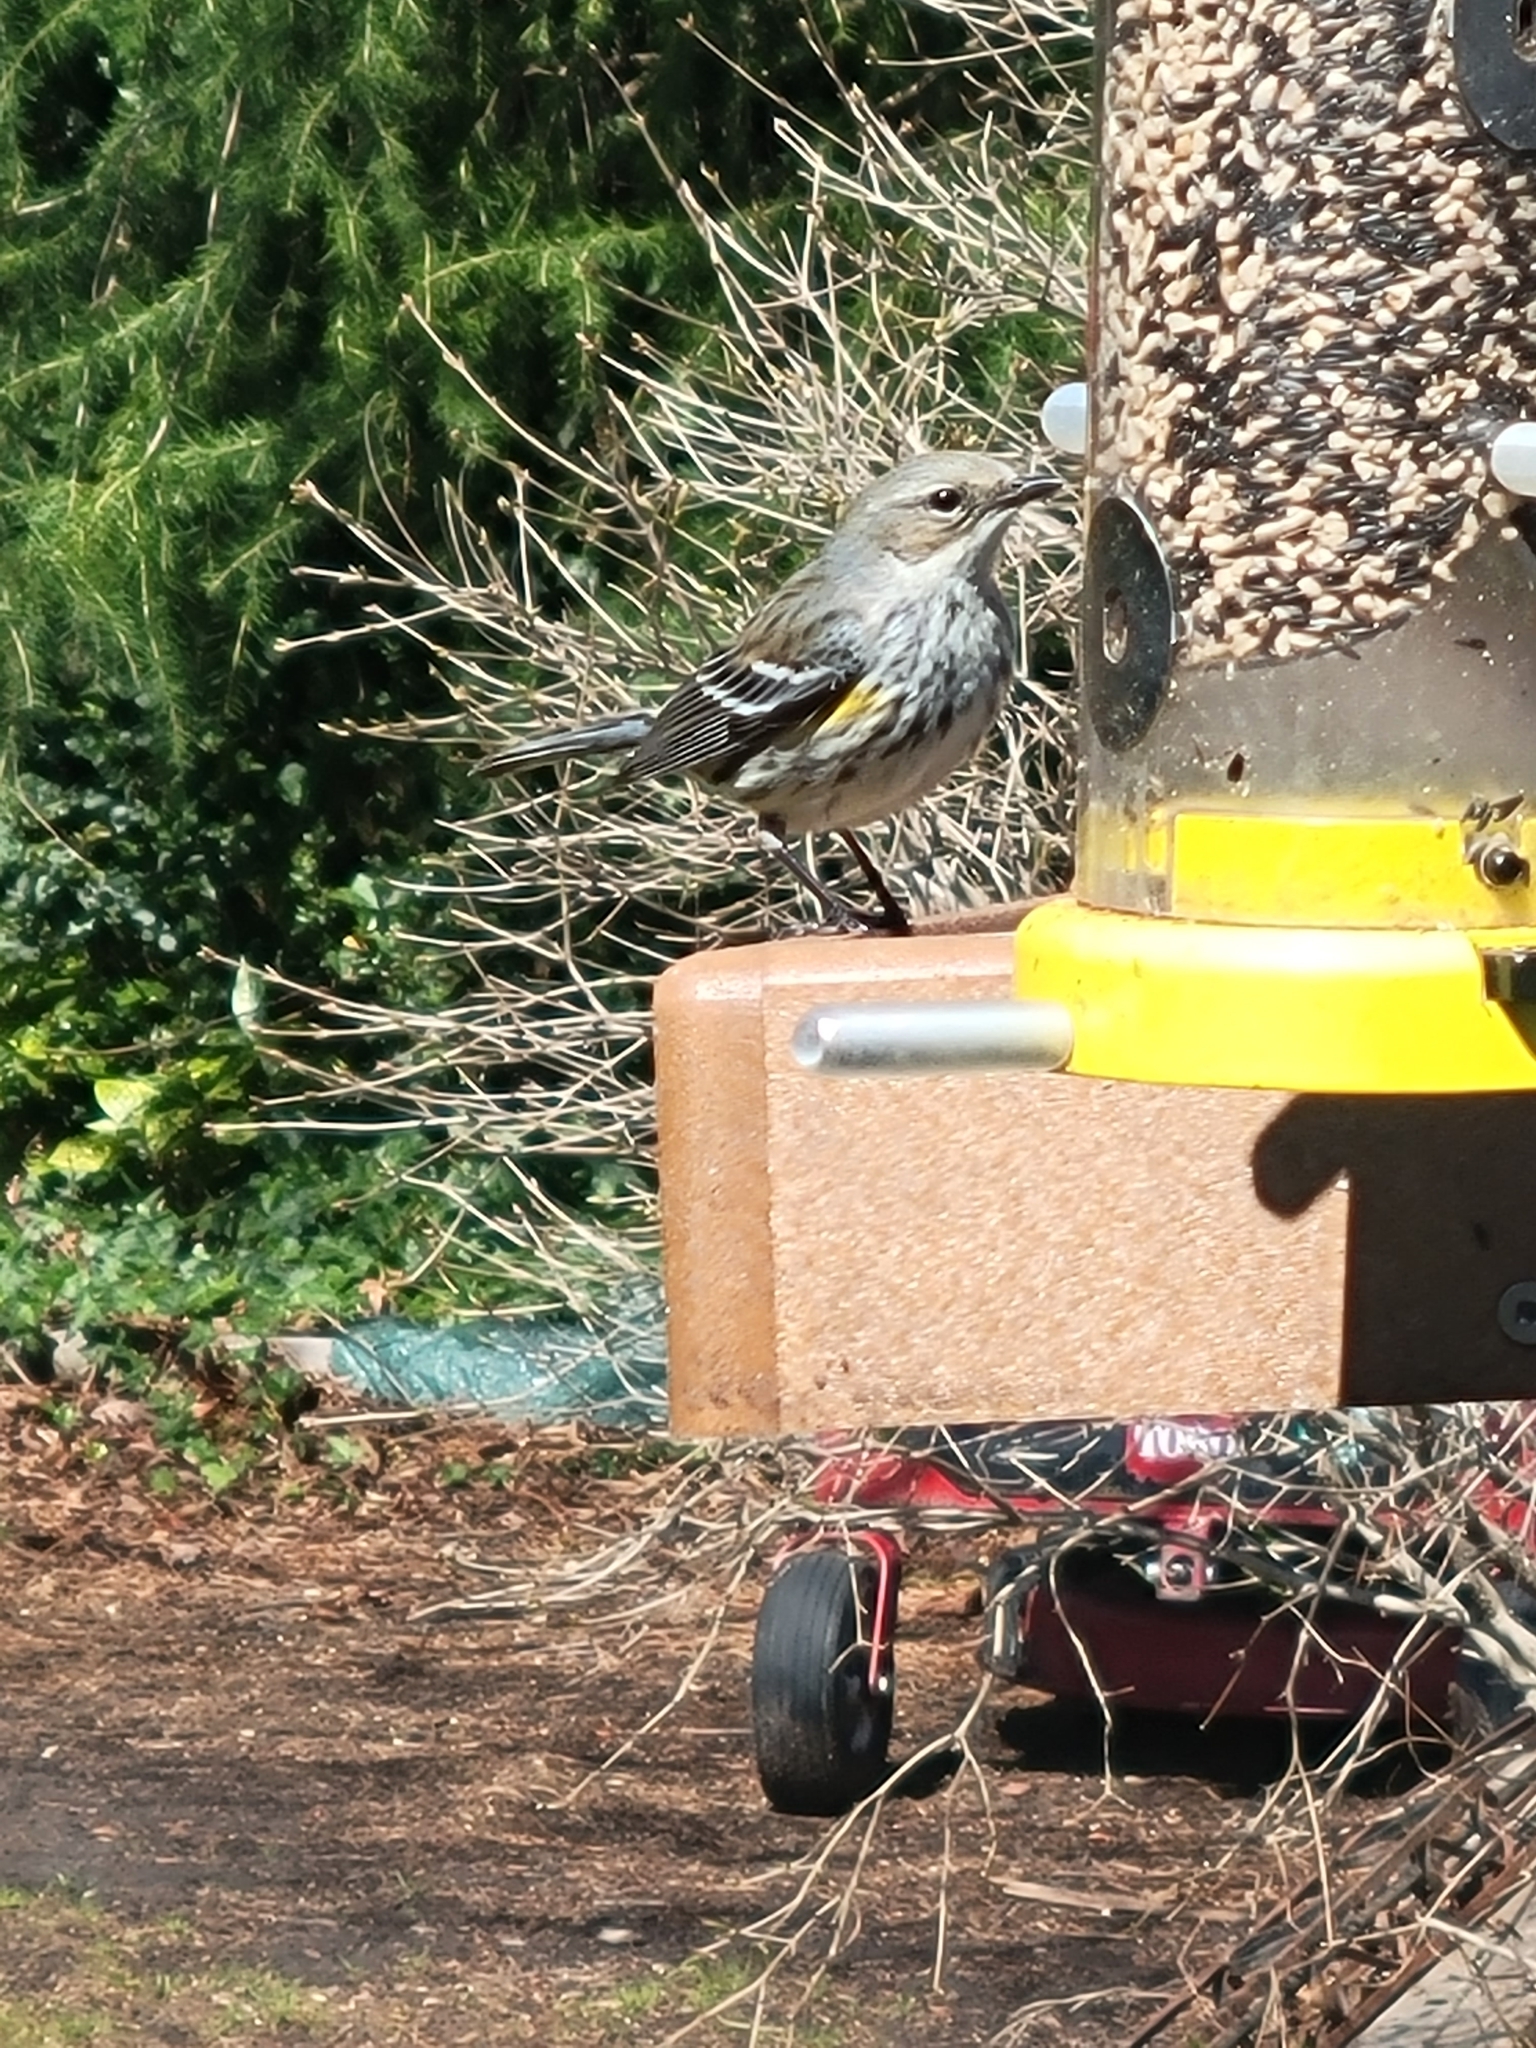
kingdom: Animalia
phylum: Chordata
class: Aves
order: Passeriformes
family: Parulidae
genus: Setophaga
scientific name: Setophaga coronata
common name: Myrtle warbler
